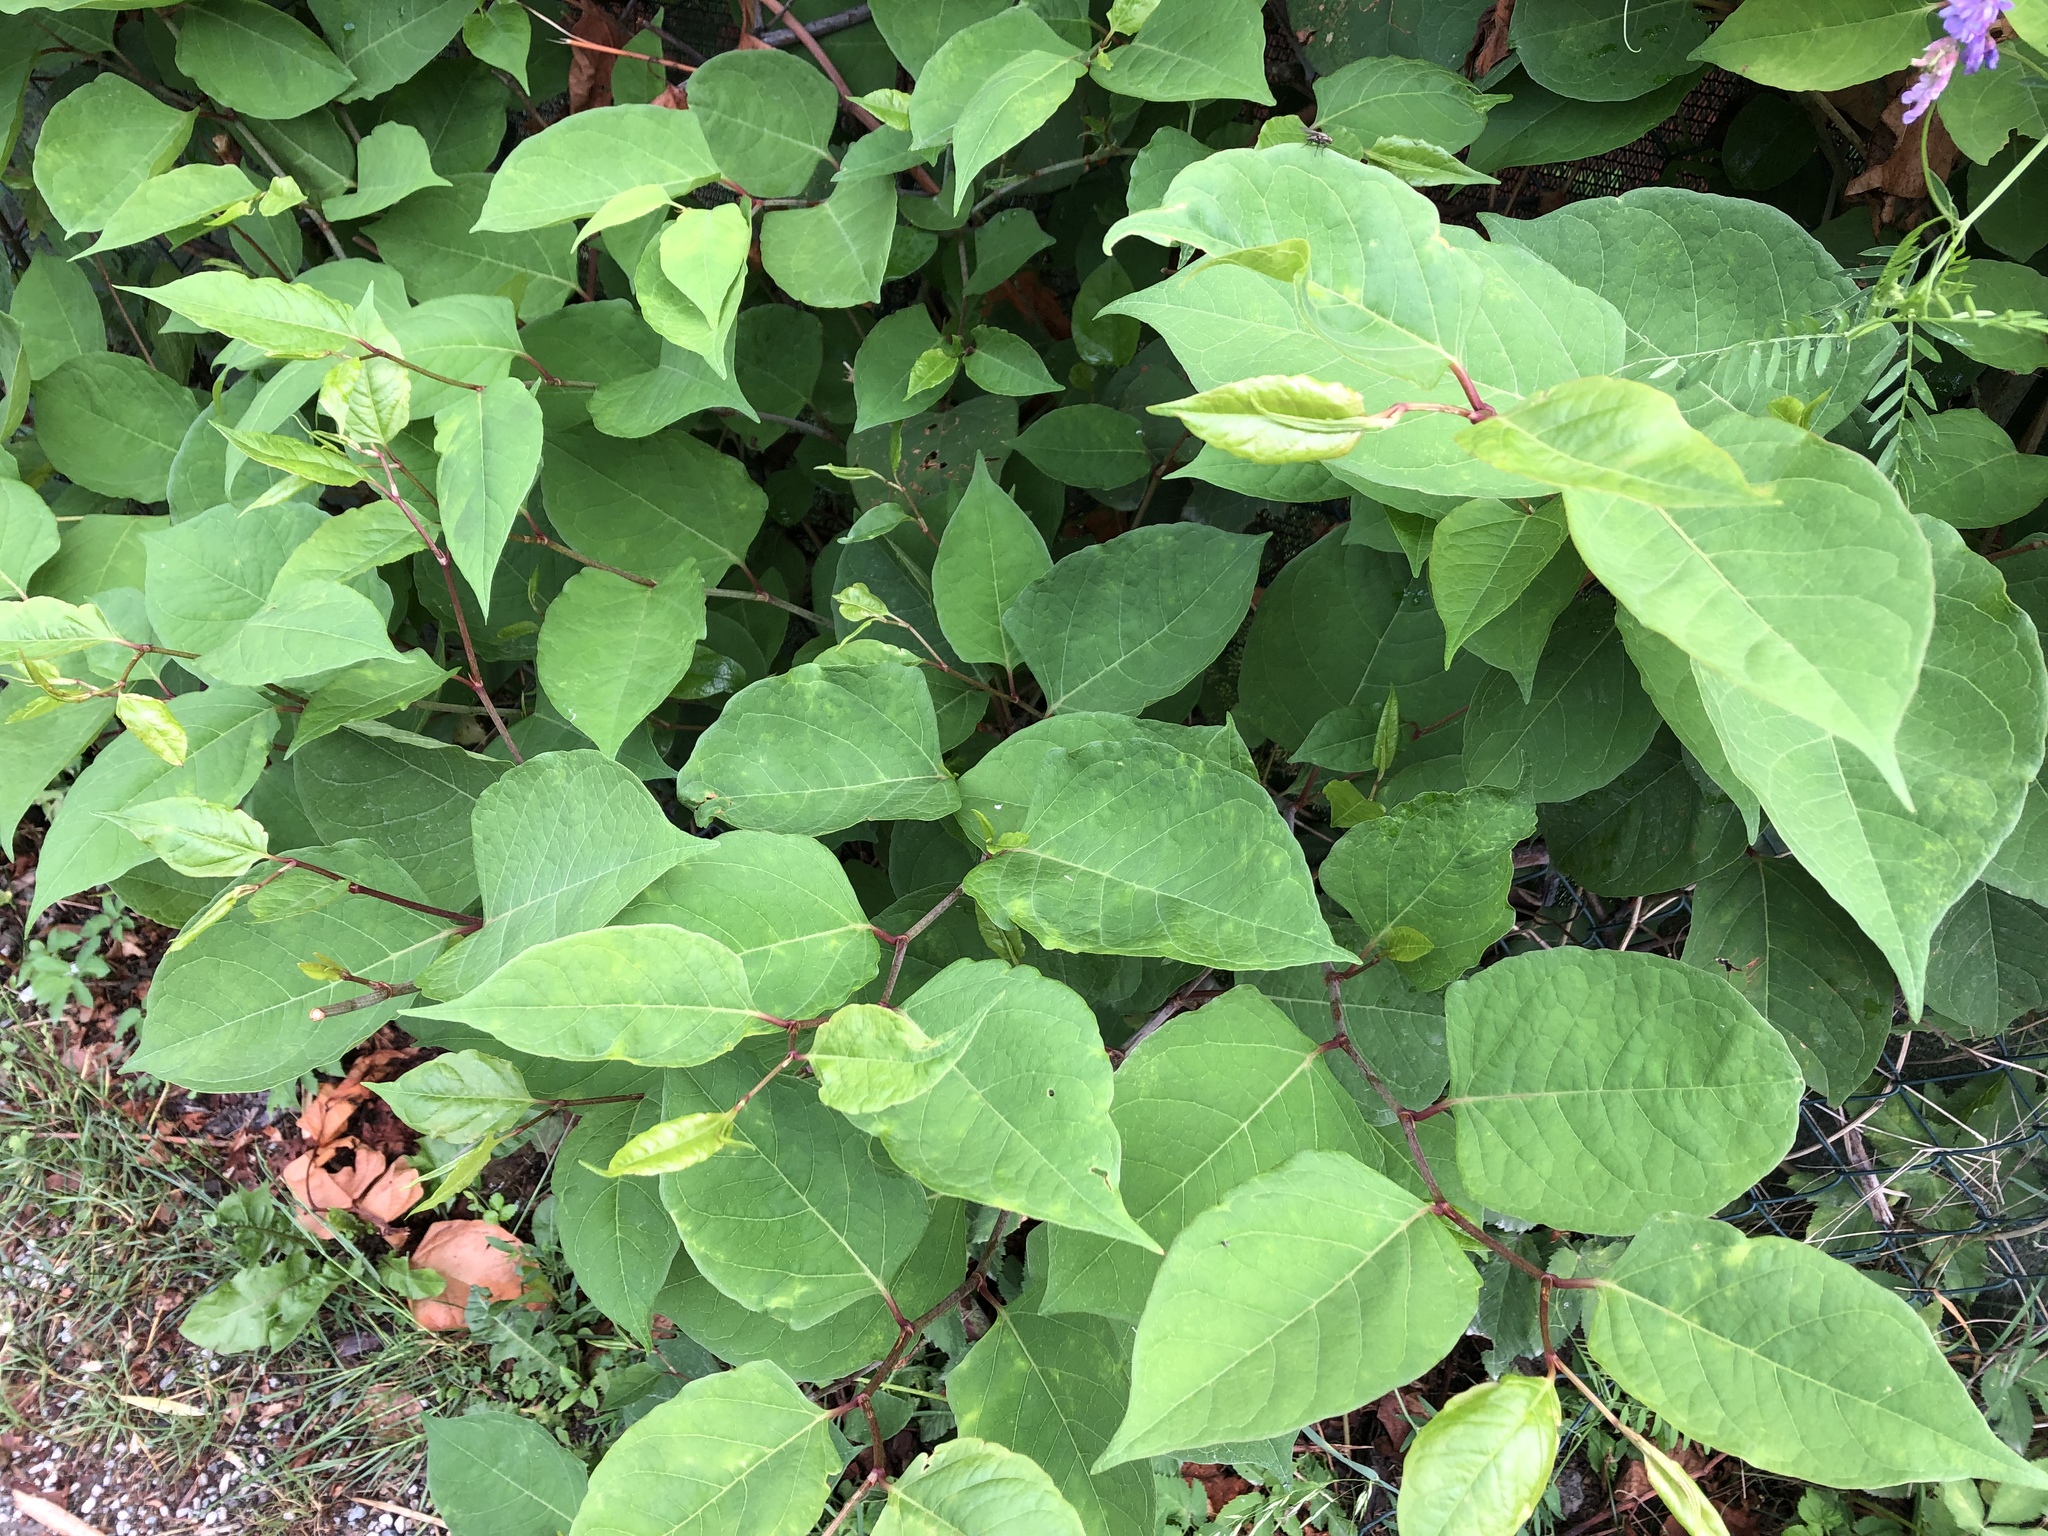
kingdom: Plantae
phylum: Tracheophyta
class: Magnoliopsida
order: Caryophyllales
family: Polygonaceae
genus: Reynoutria
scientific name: Reynoutria japonica
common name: Japanese knotweed
